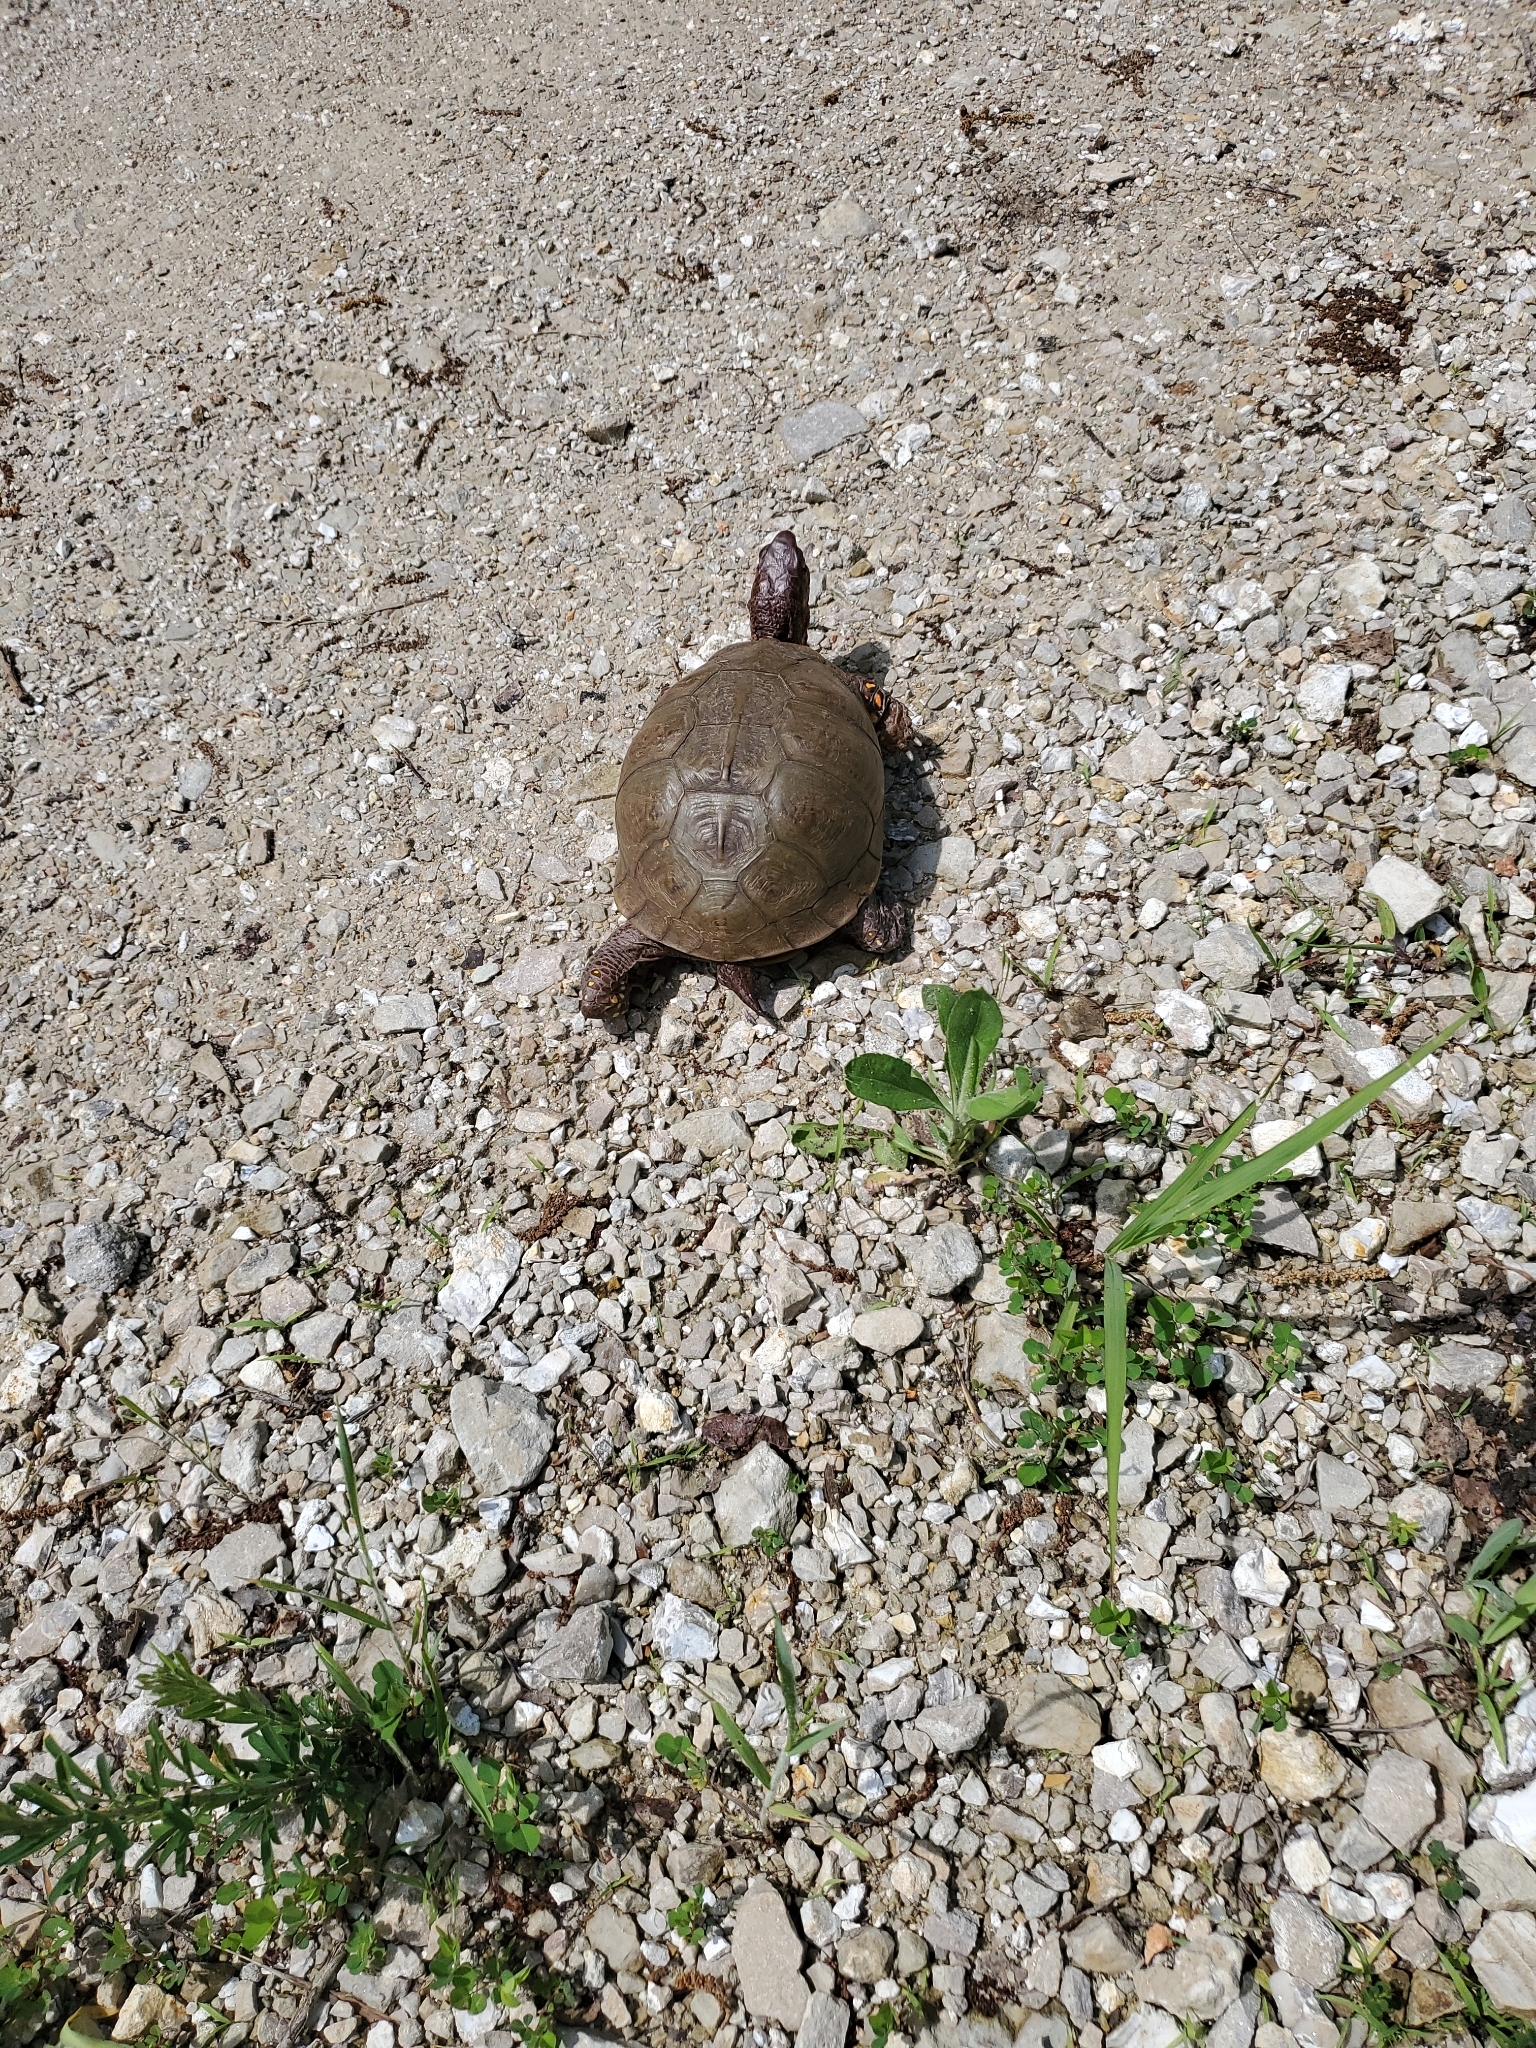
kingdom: Animalia
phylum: Chordata
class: Testudines
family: Emydidae
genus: Terrapene
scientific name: Terrapene carolina
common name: Common box turtle
